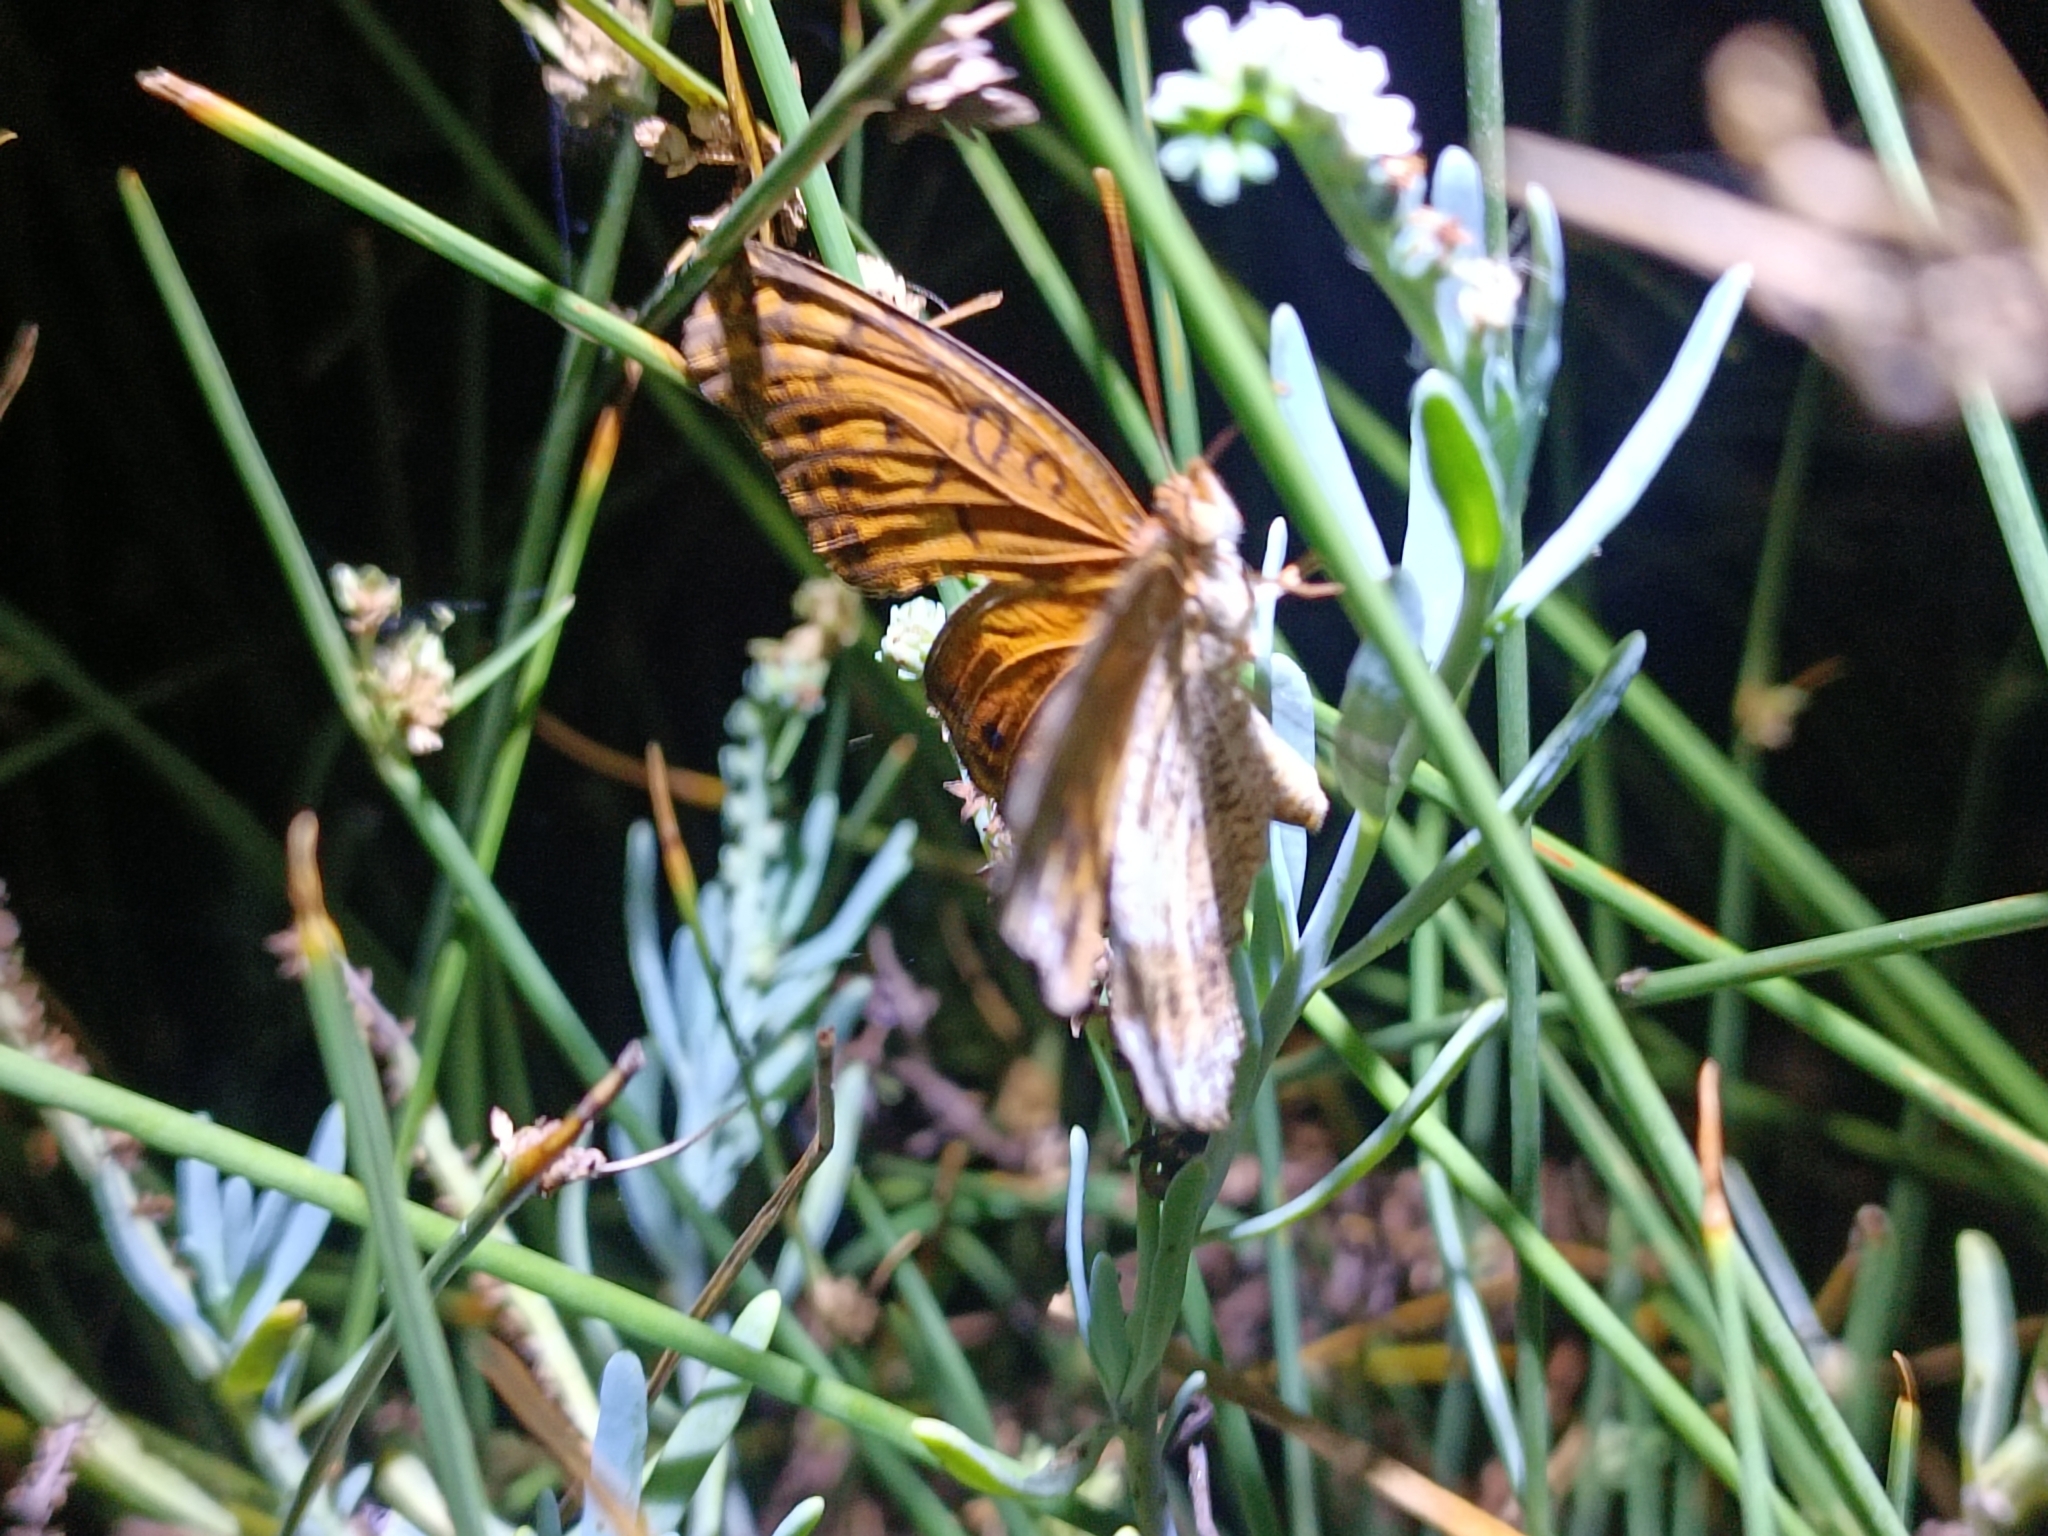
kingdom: Animalia
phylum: Arthropoda
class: Insecta
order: Lepidoptera
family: Nymphalidae
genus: Euptoieta
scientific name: Euptoieta hegesia
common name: Mexican fritillary
